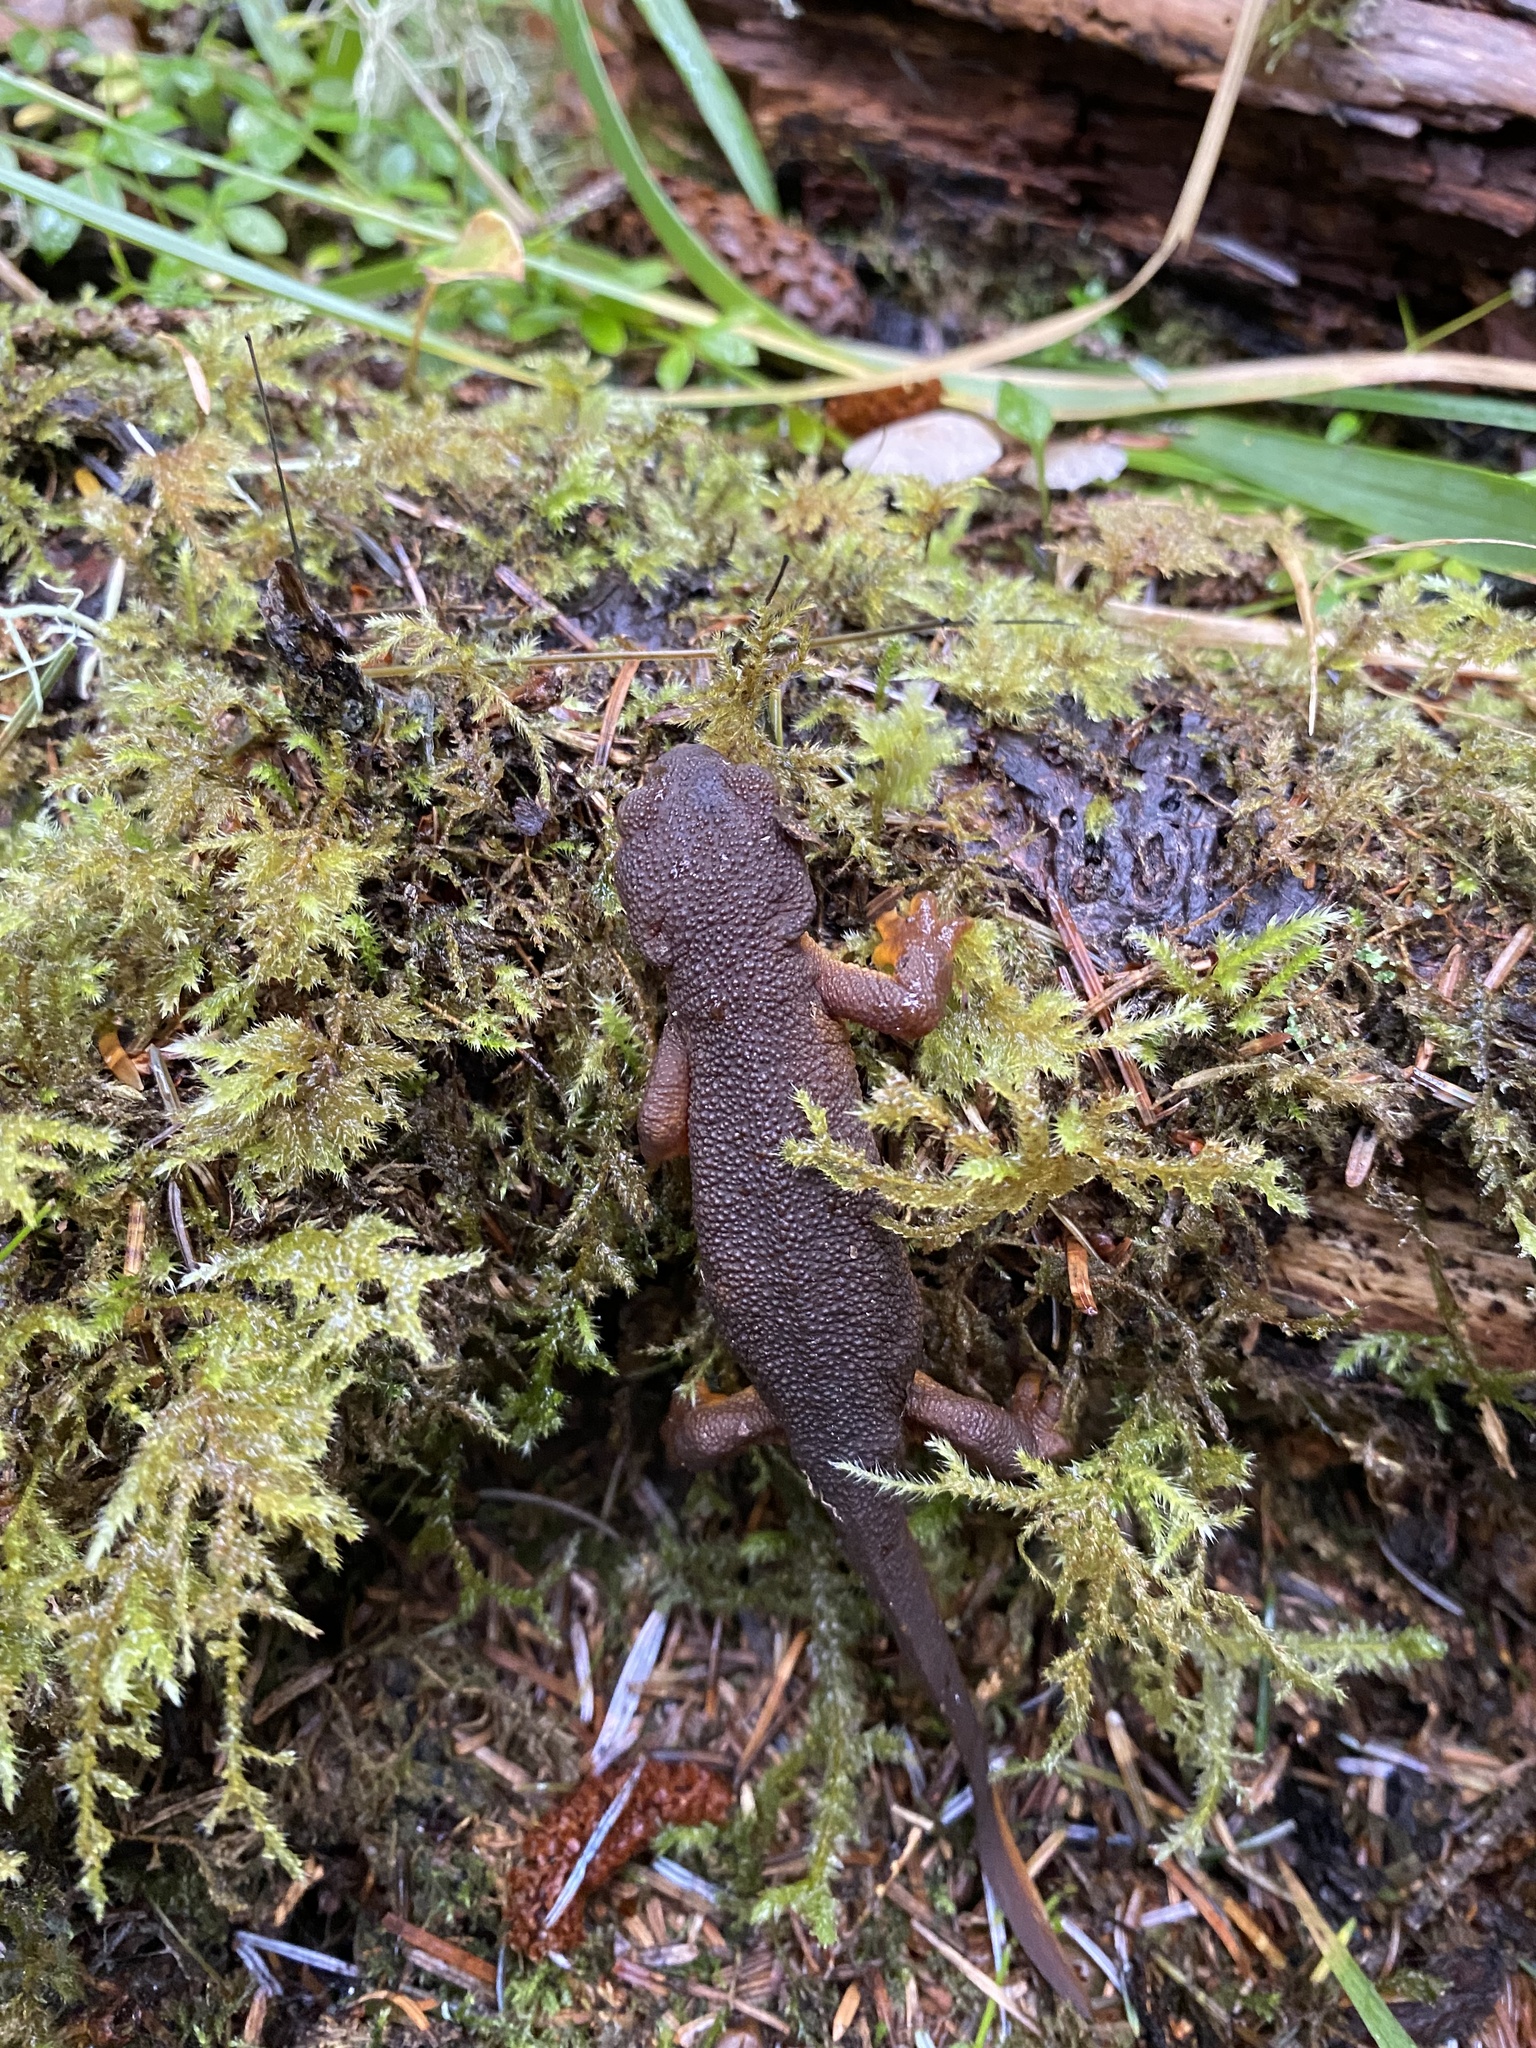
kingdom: Animalia
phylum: Chordata
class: Amphibia
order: Caudata
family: Salamandridae
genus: Taricha
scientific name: Taricha granulosa
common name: Roughskin newt
